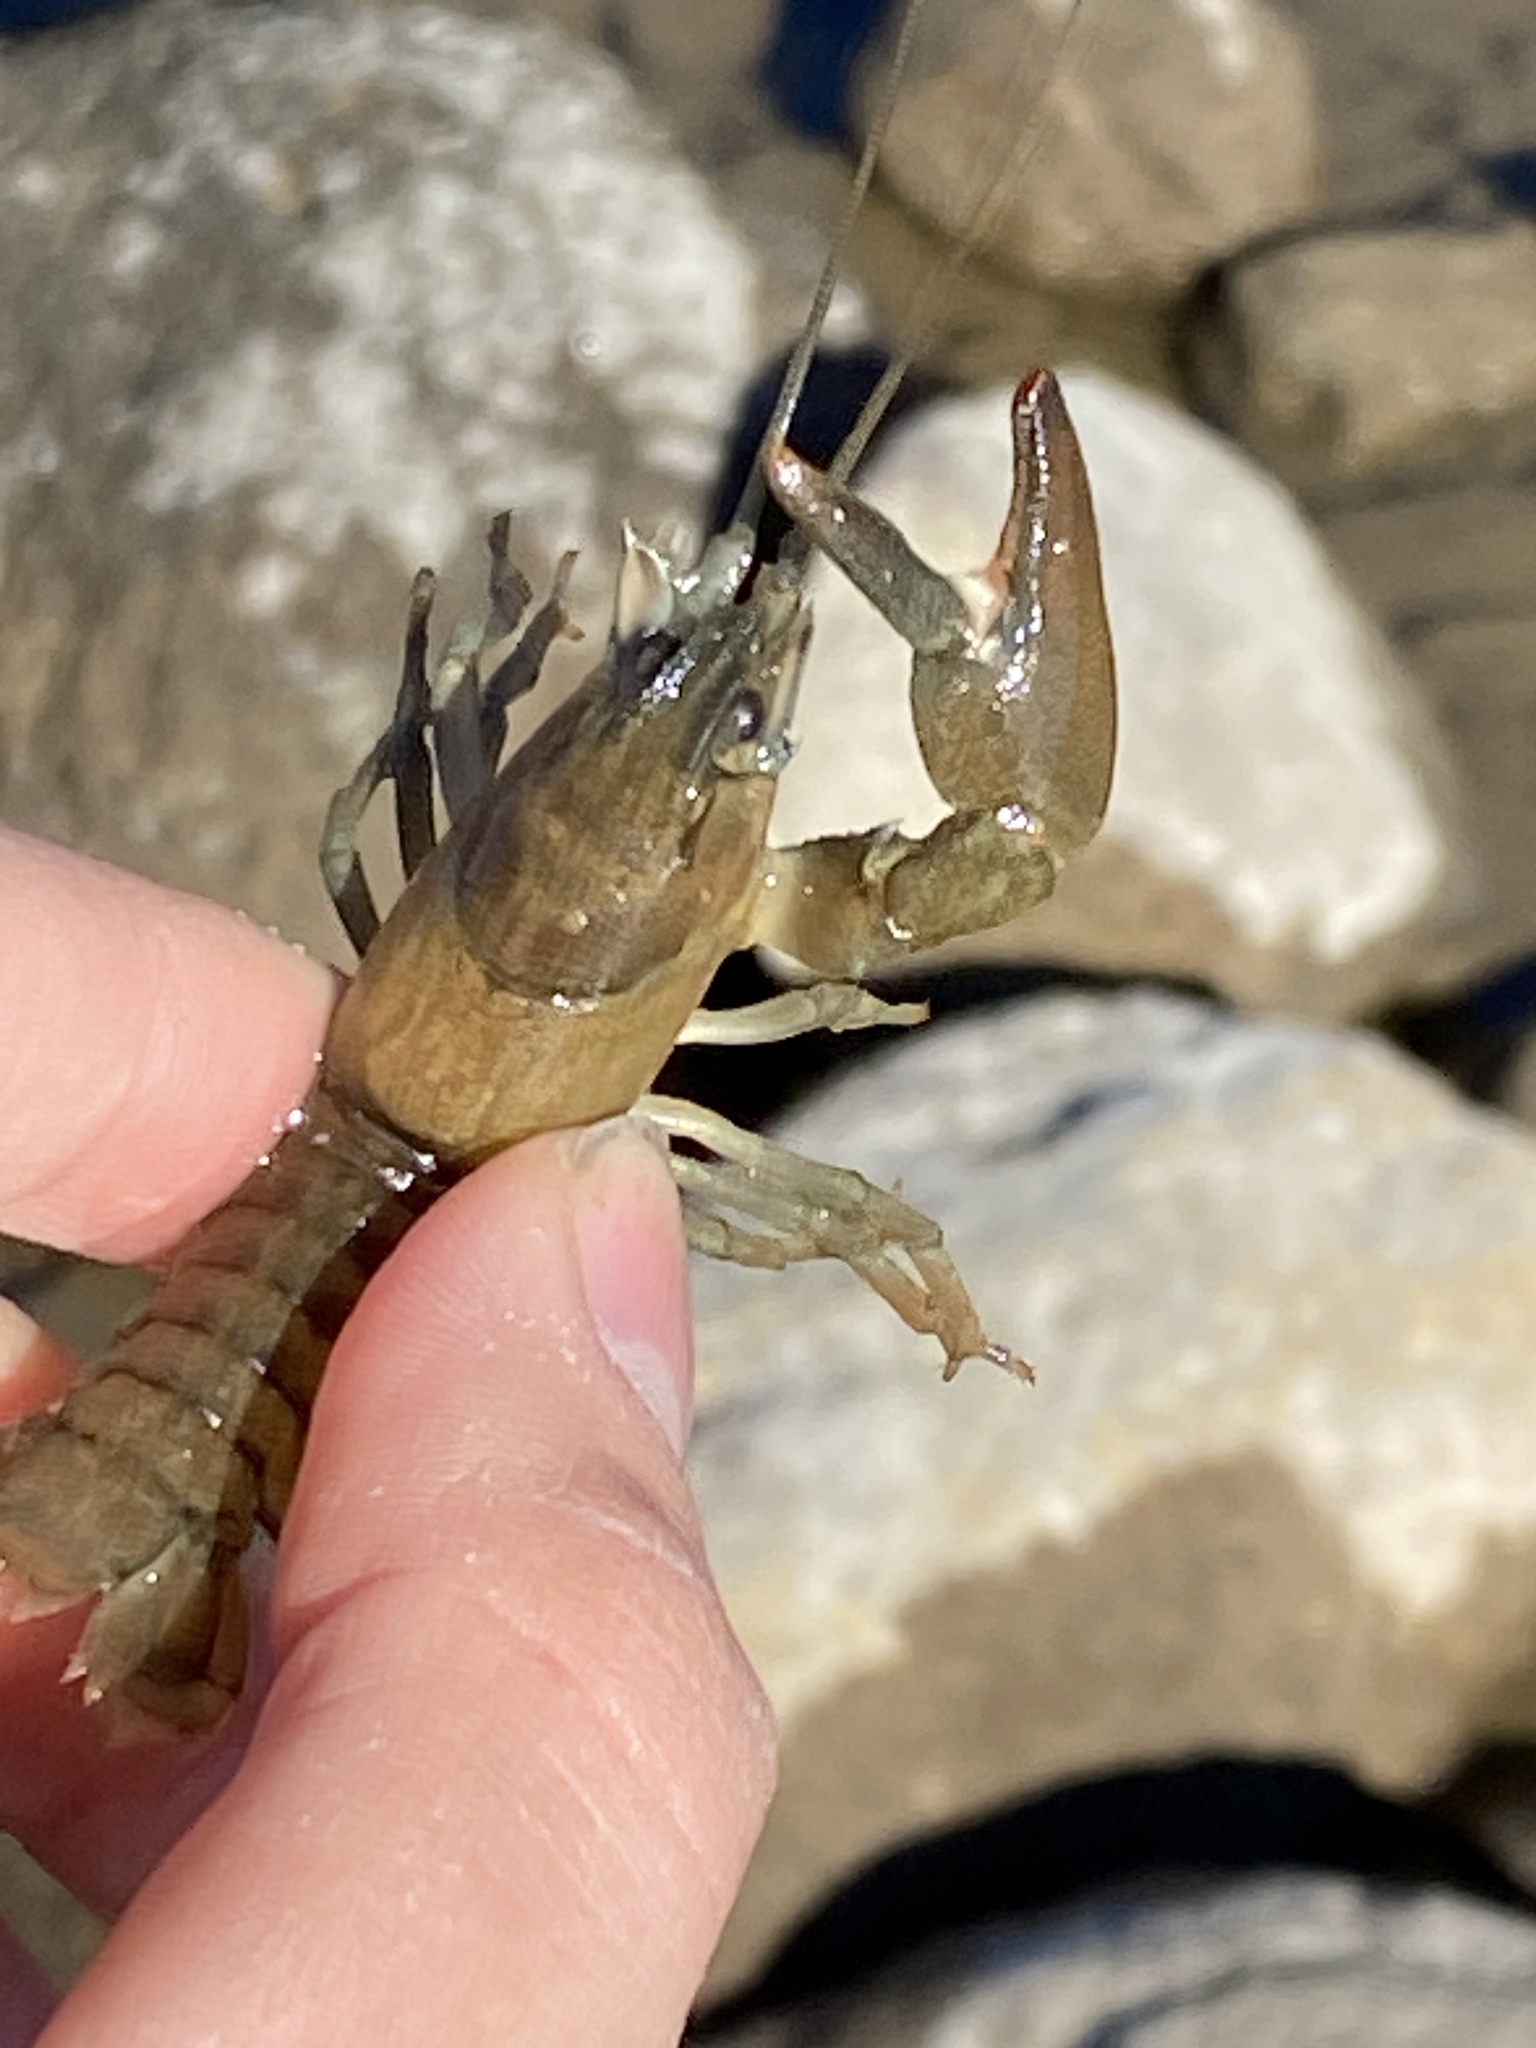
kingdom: Animalia
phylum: Arthropoda
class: Malacostraca
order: Decapoda
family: Astacidae
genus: Pacifastacus
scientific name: Pacifastacus leniusculus
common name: Signal crayfish
